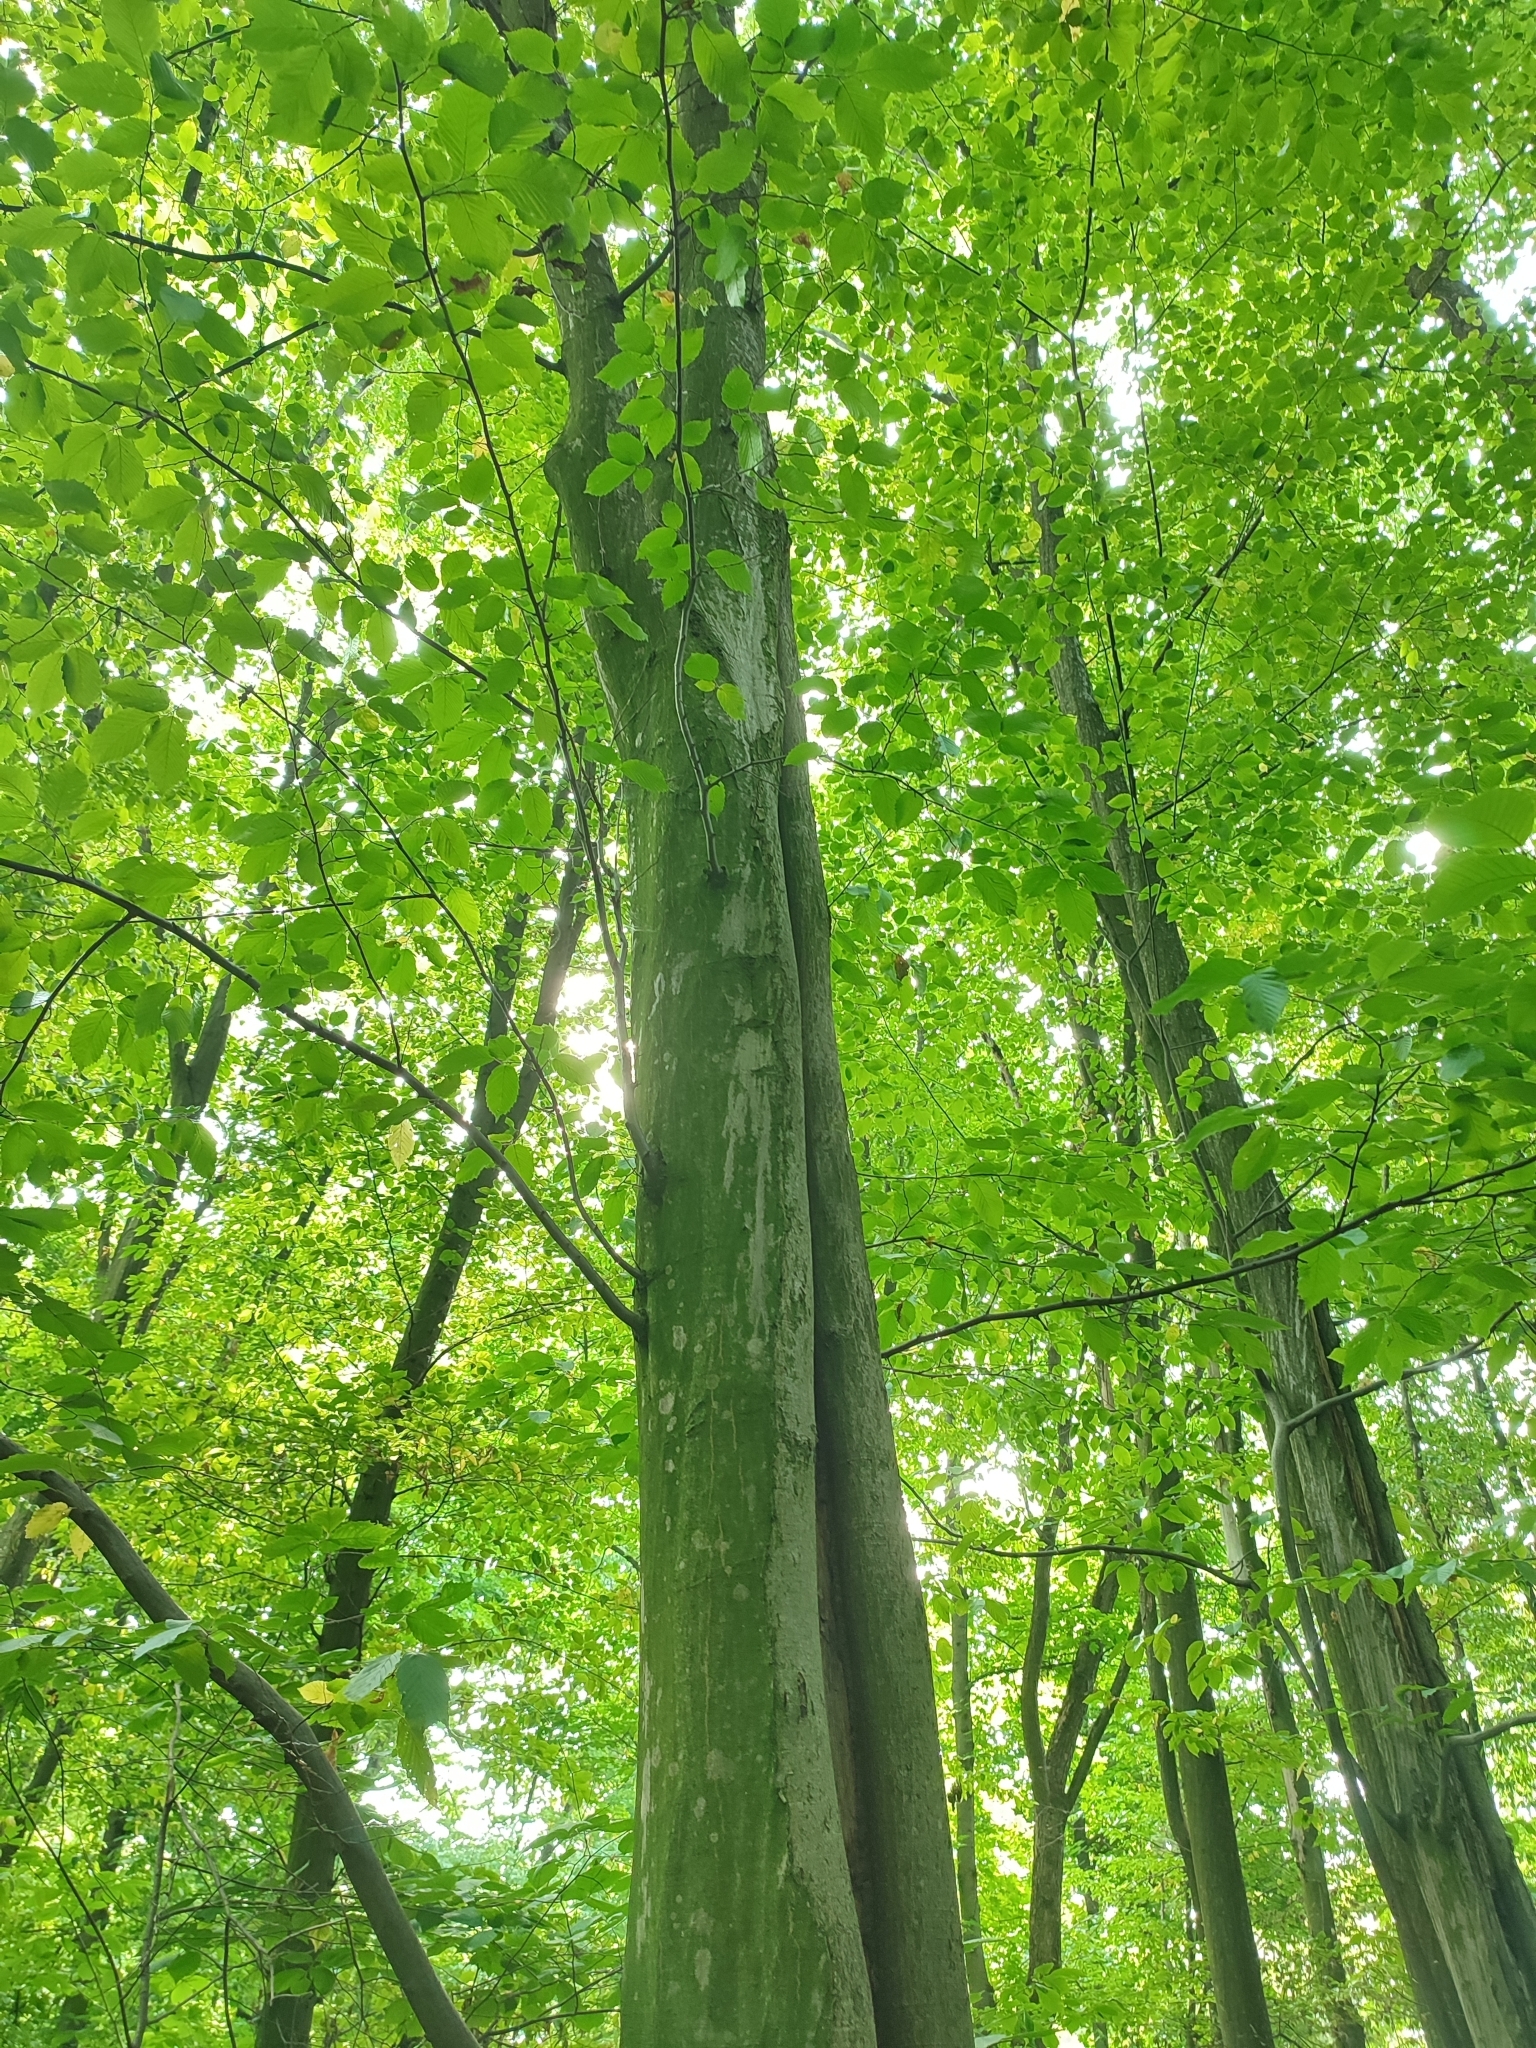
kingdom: Plantae
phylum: Tracheophyta
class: Magnoliopsida
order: Fagales
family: Betulaceae
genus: Carpinus
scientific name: Carpinus betulus
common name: Hornbeam
